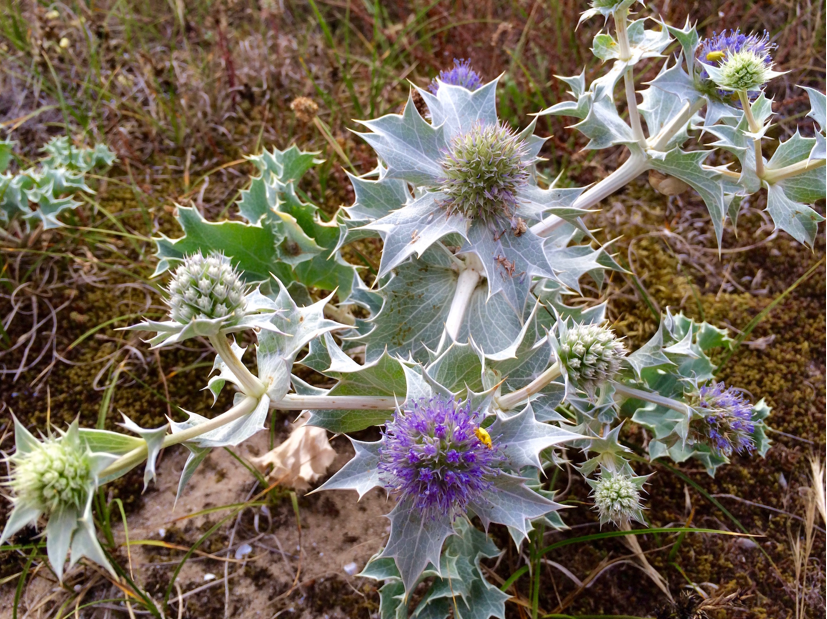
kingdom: Plantae
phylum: Tracheophyta
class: Magnoliopsida
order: Apiales
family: Apiaceae
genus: Eryngium
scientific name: Eryngium maritimum
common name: Sea-holly
